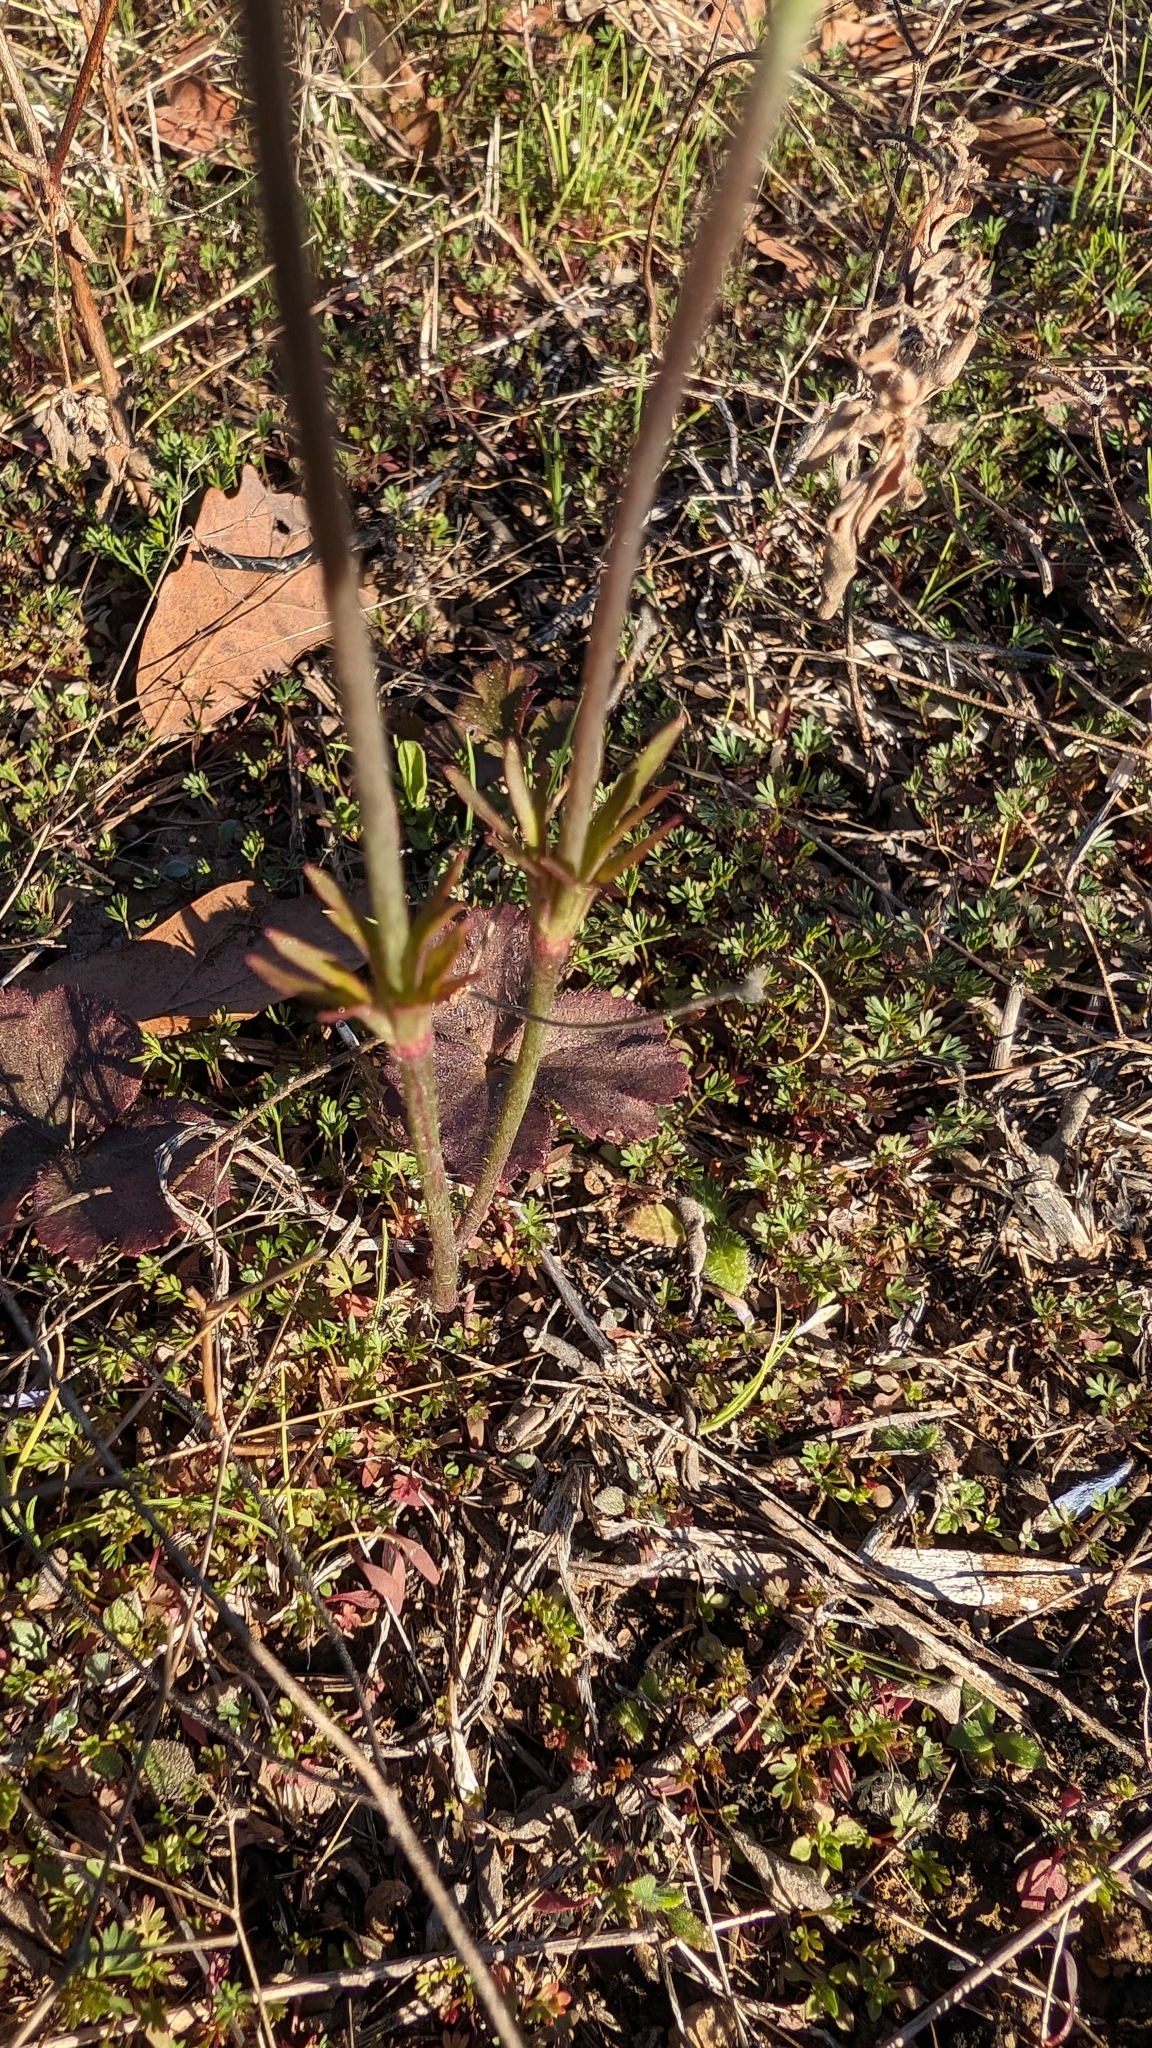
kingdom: Plantae
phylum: Tracheophyta
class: Magnoliopsida
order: Ranunculales
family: Ranunculaceae
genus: Anemone
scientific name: Anemone berlandieri
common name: Ten-petal anemone
